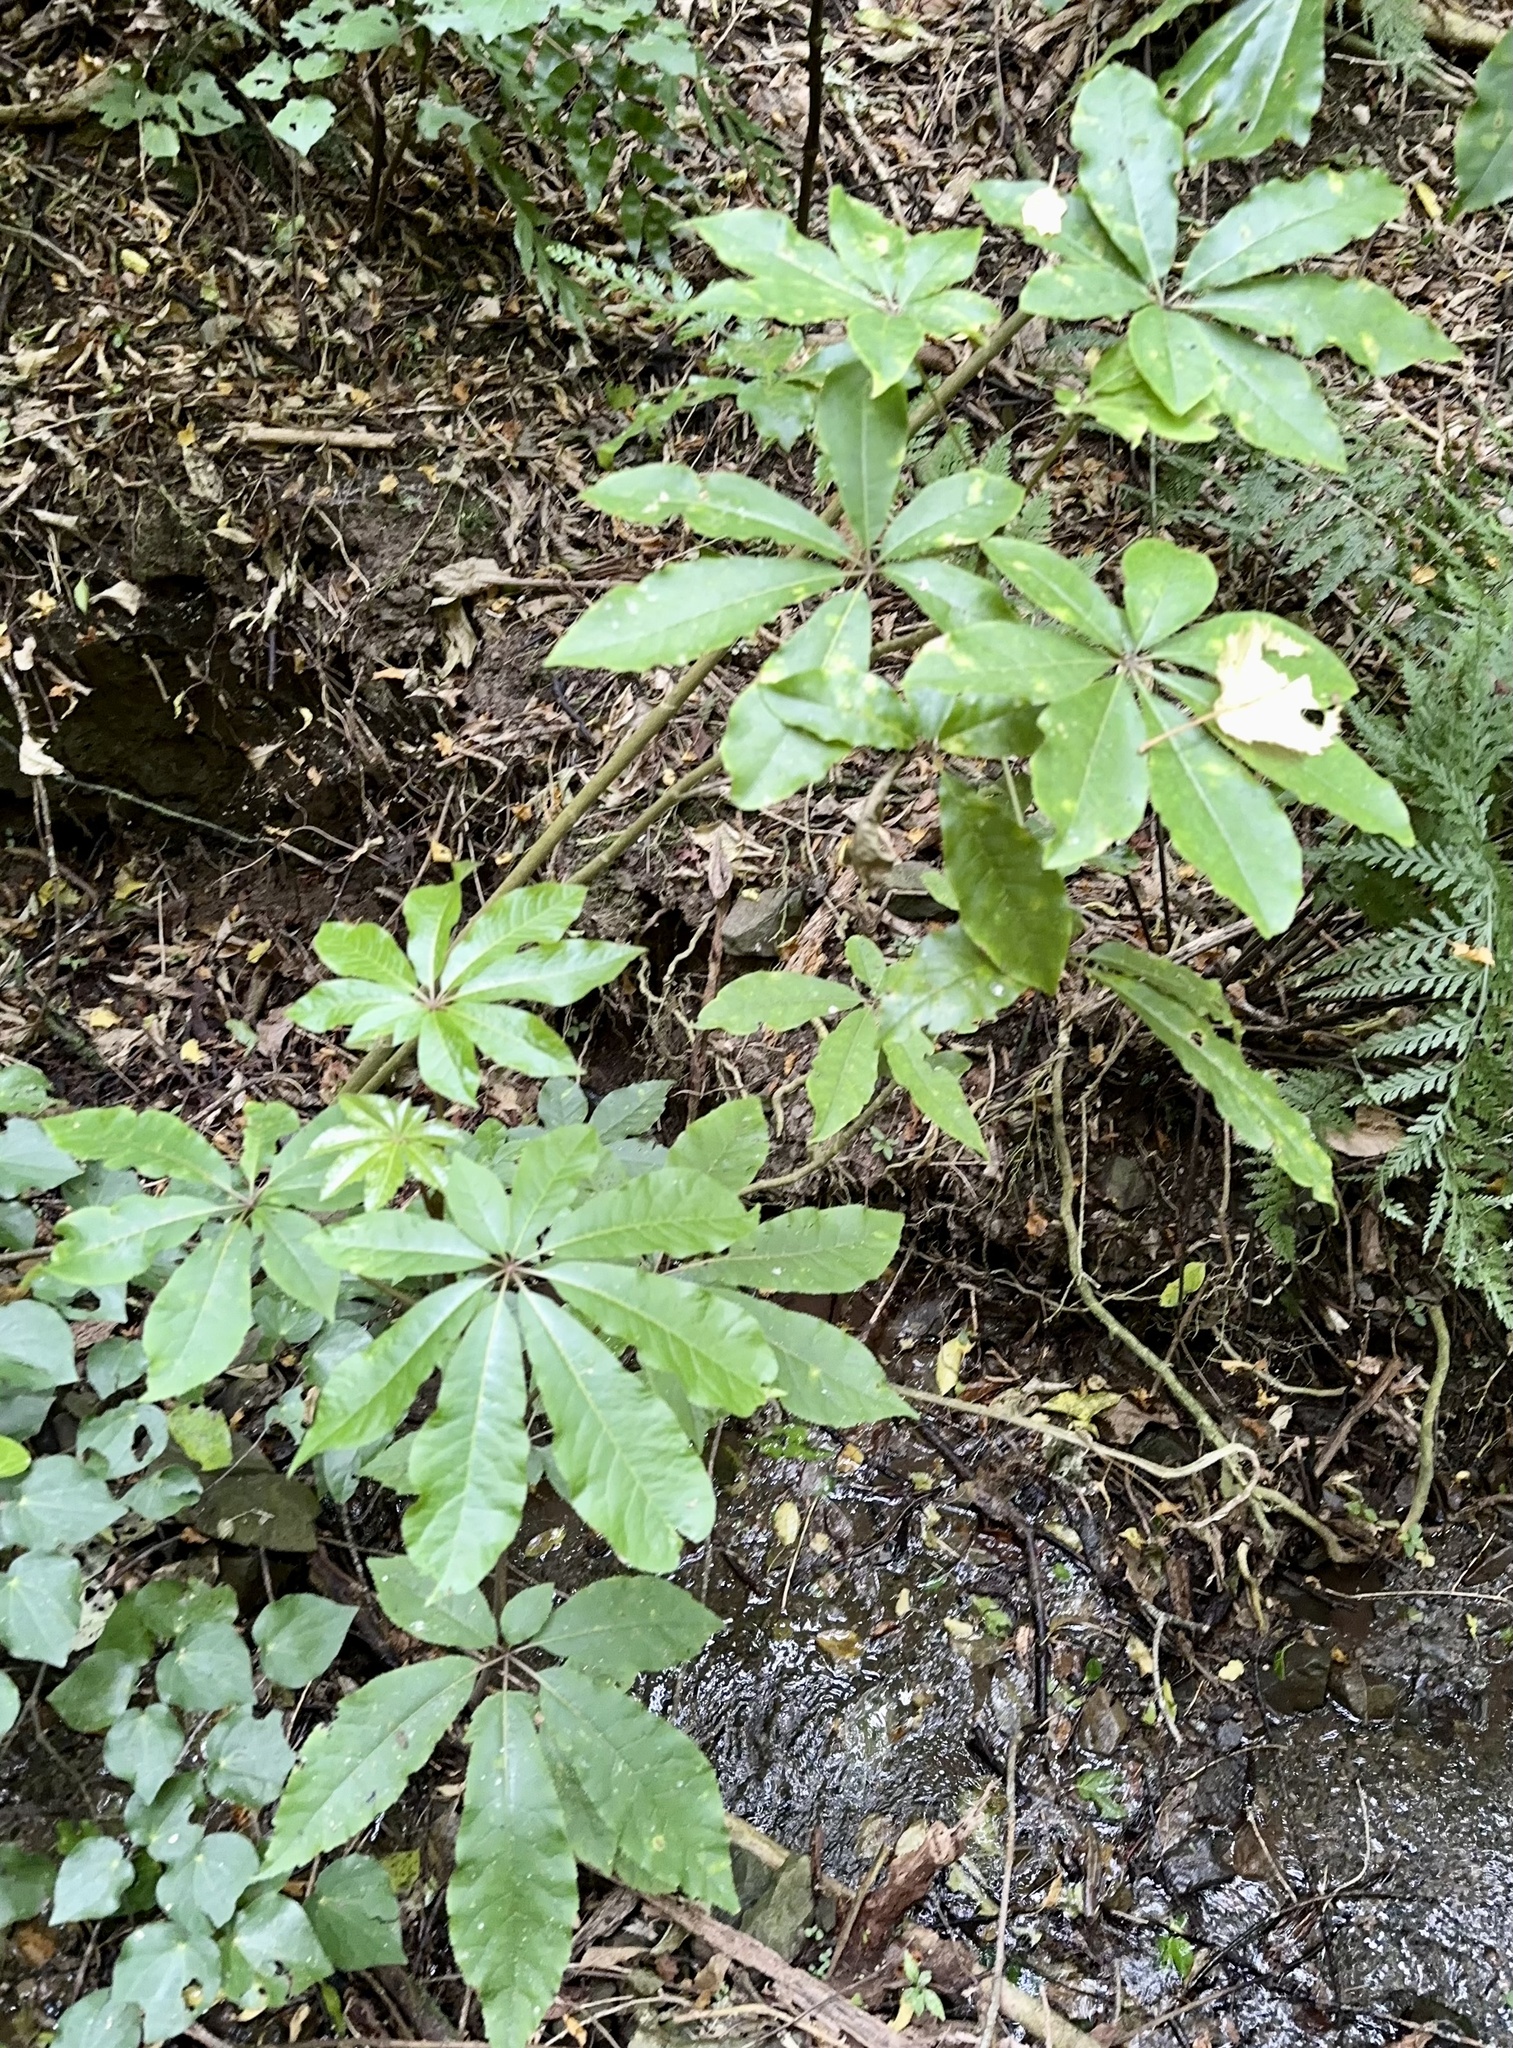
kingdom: Plantae
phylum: Tracheophyta
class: Magnoliopsida
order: Apiales
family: Araliaceae
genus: Schefflera
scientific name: Schefflera digitata
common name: Pate
